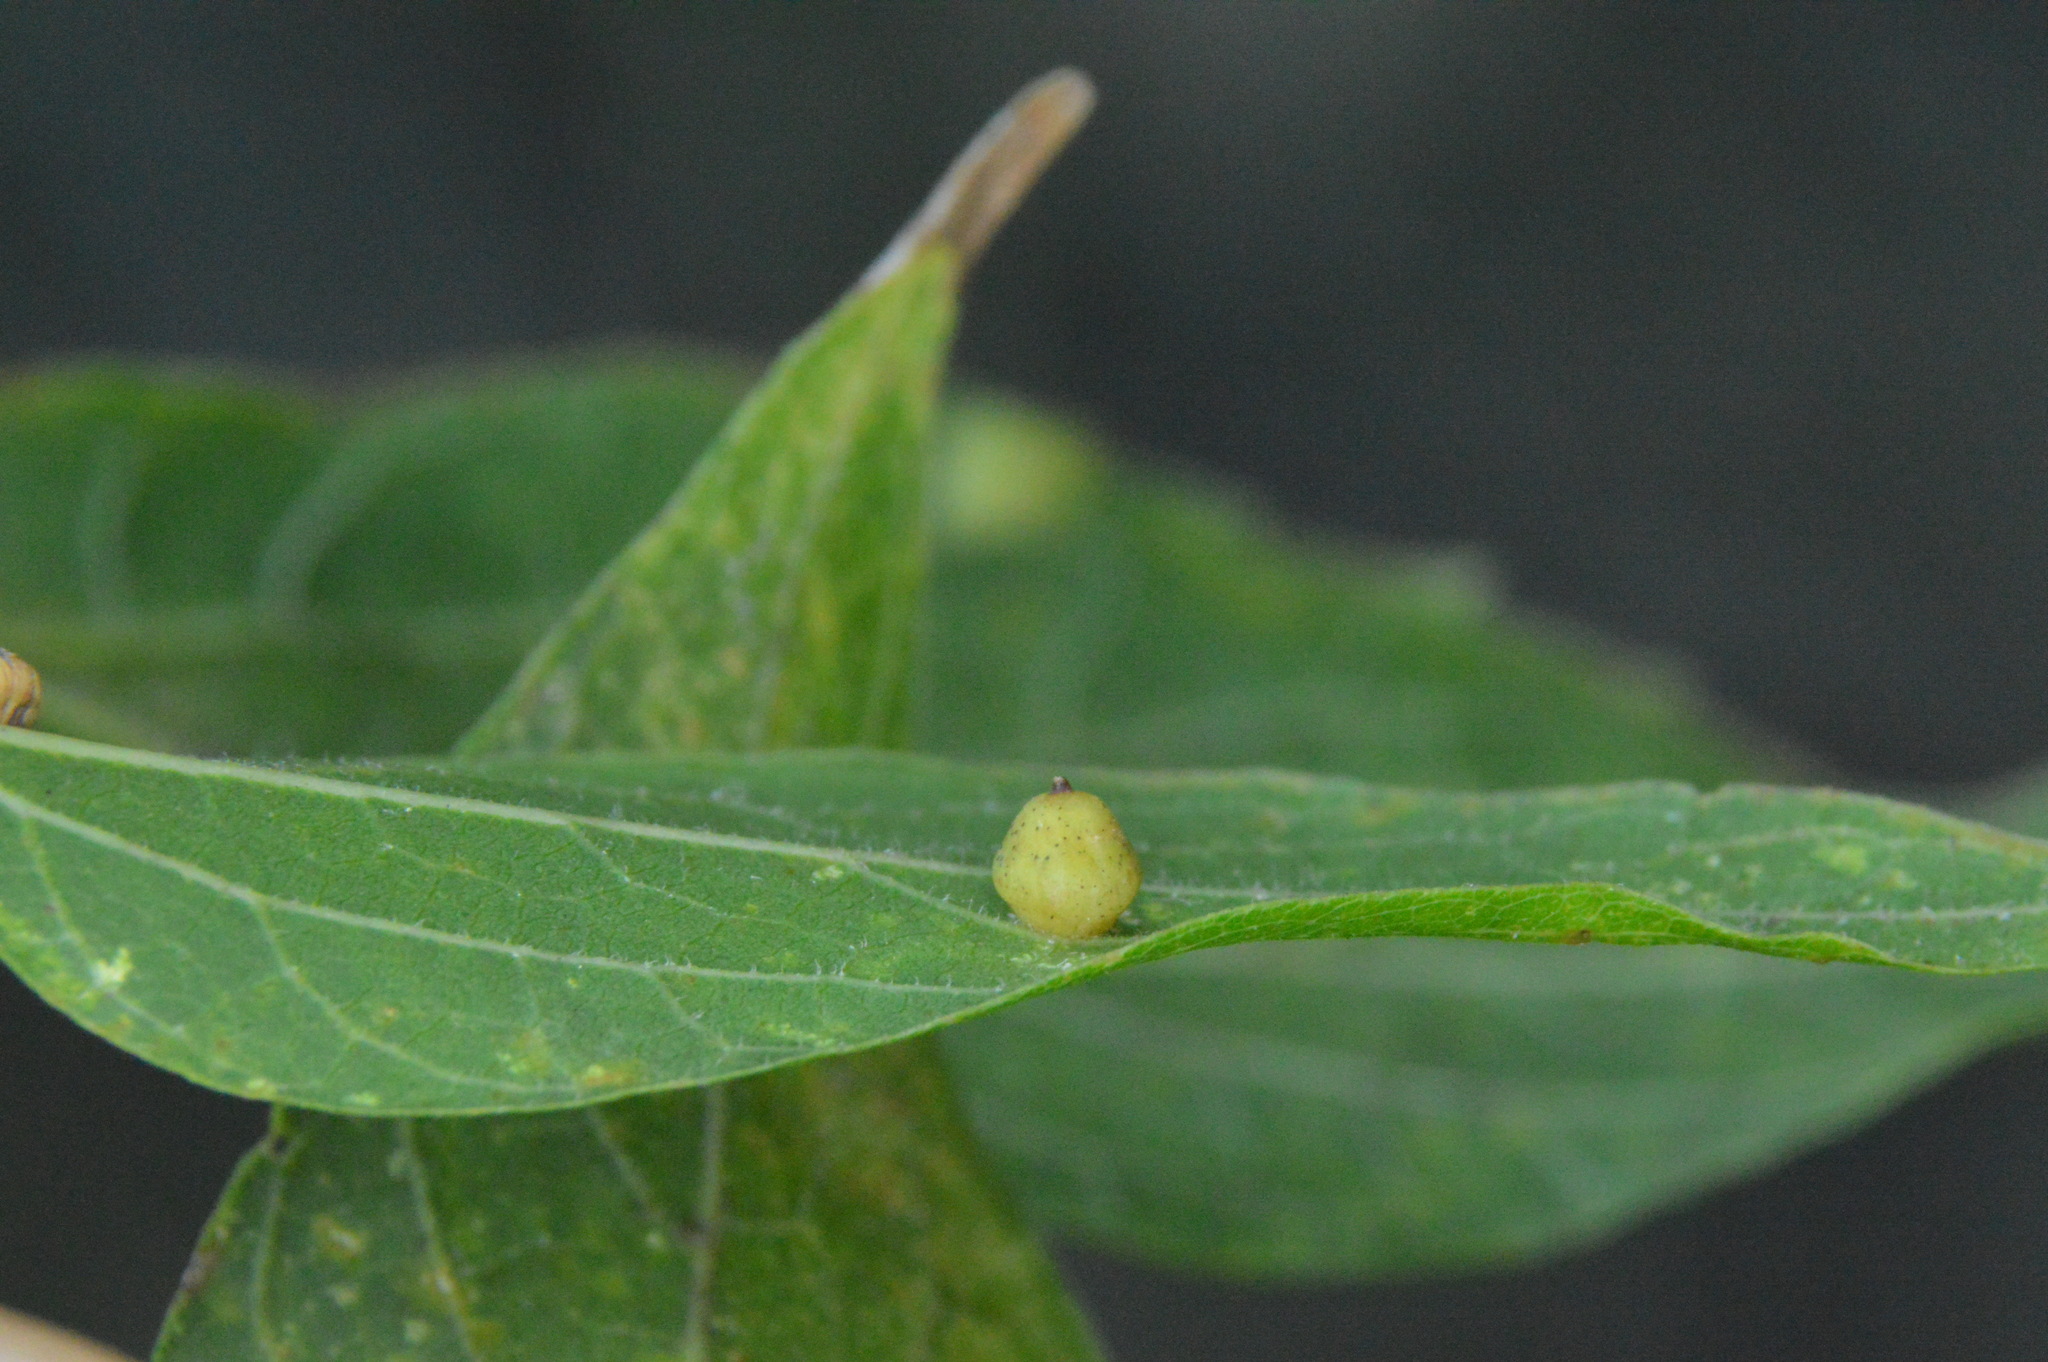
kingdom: Animalia
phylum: Arthropoda
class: Insecta
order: Diptera
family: Cecidomyiidae
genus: Celticecis
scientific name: Celticecis globosa
